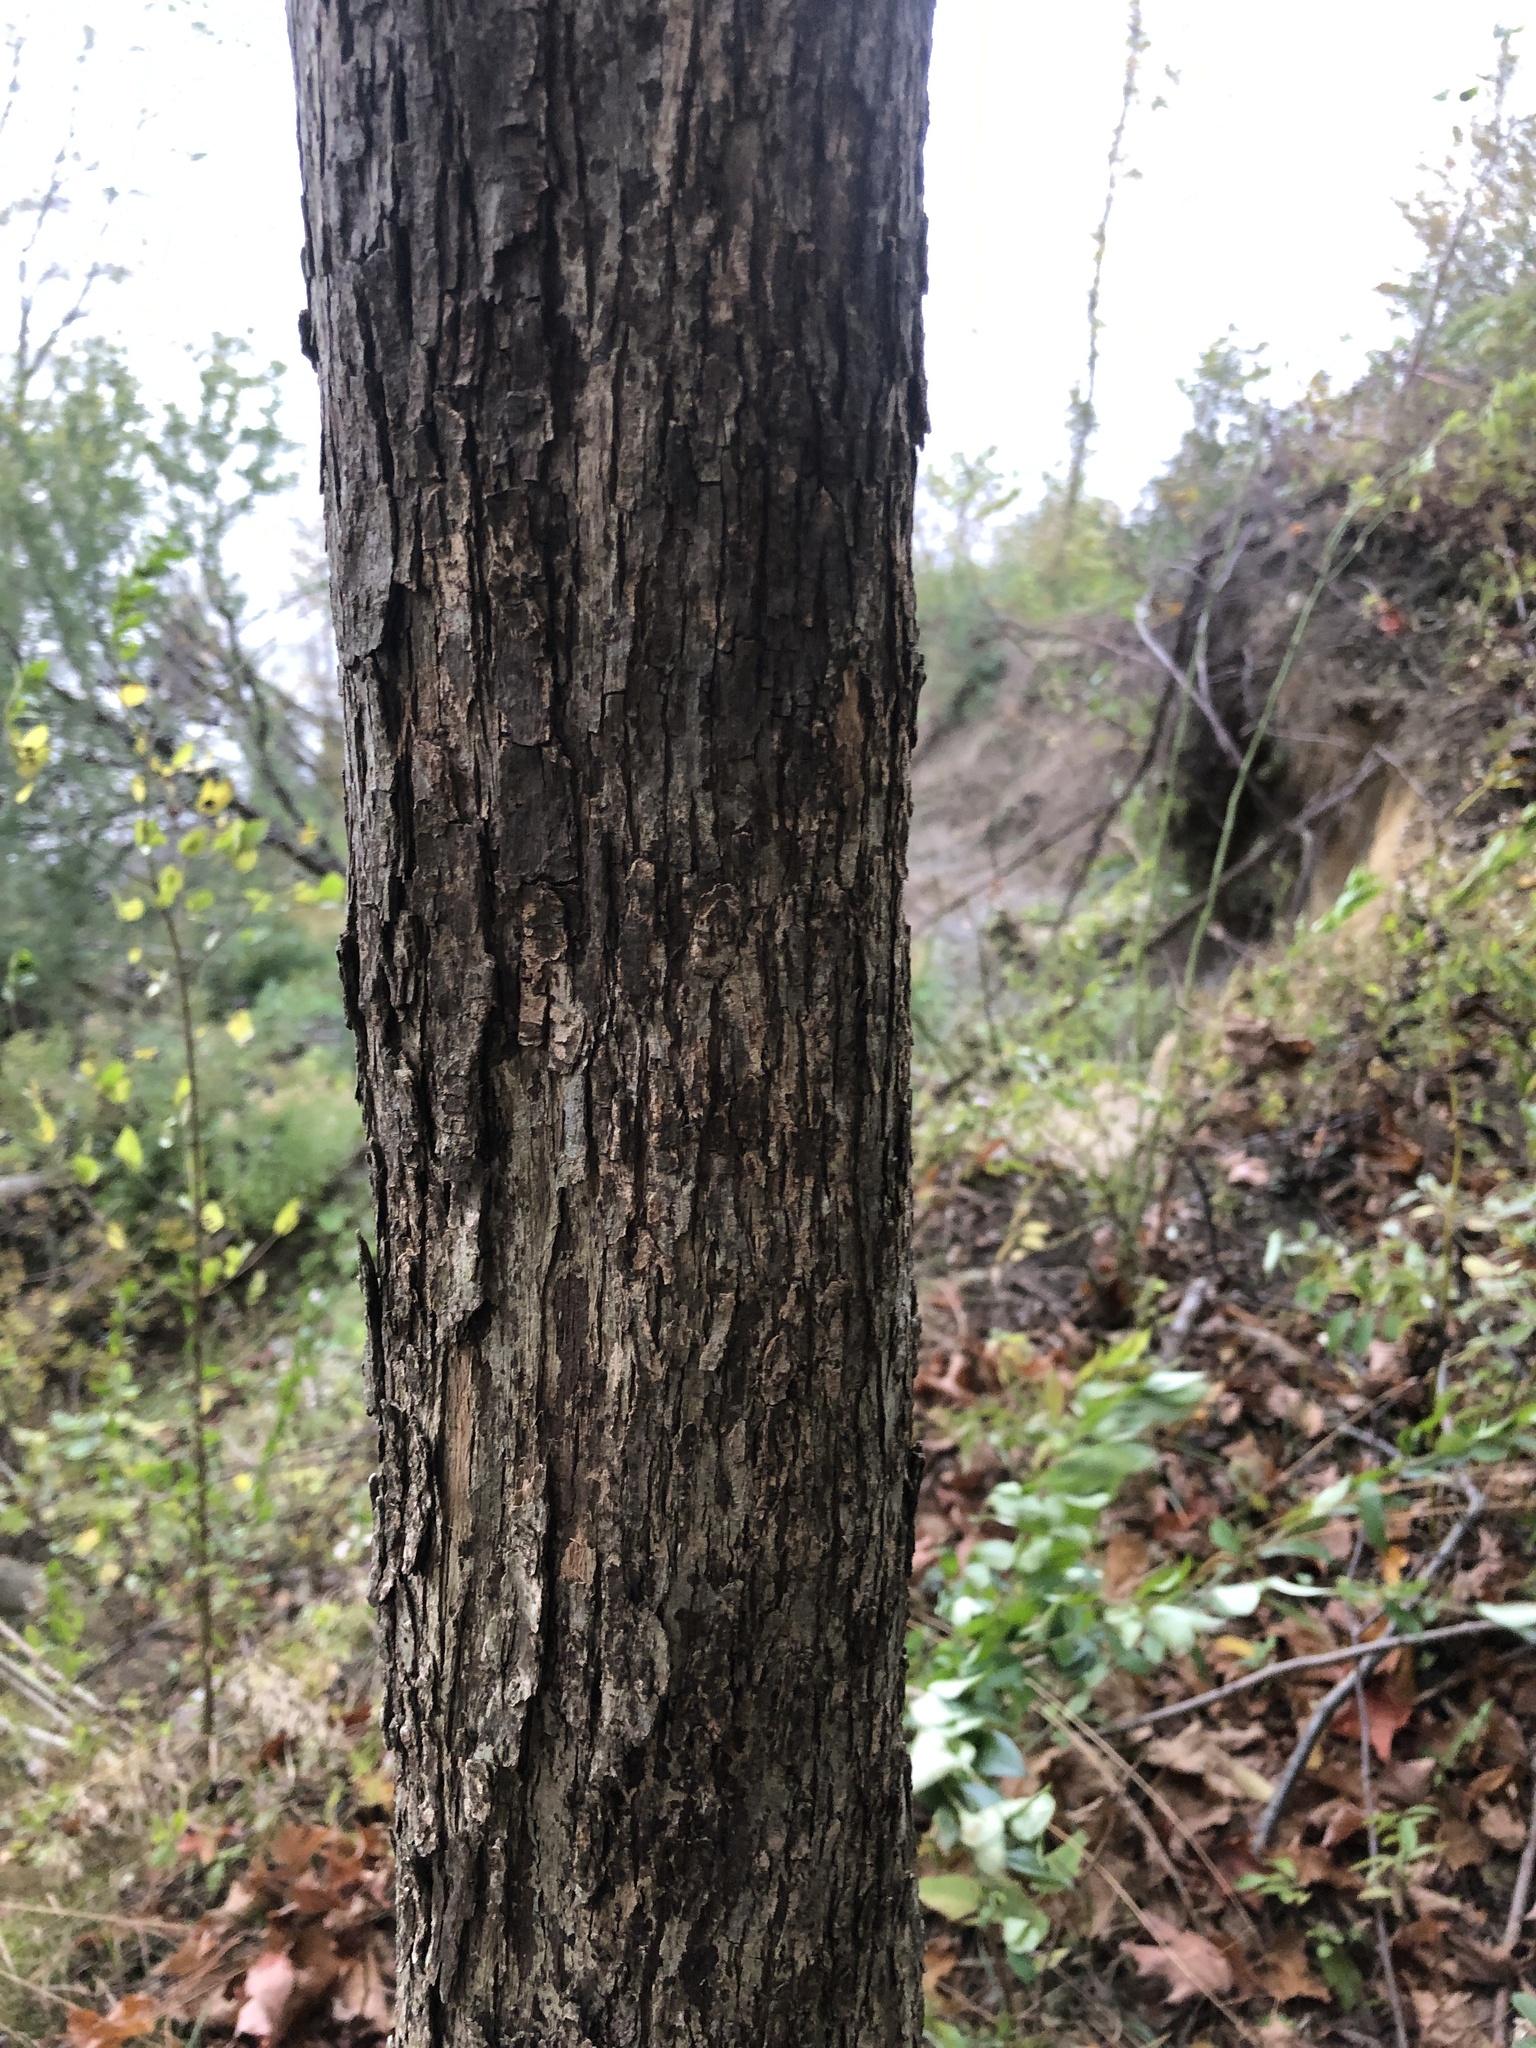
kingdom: Plantae
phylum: Tracheophyta
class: Magnoliopsida
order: Fagales
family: Betulaceae
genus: Ostrya
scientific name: Ostrya virginiana
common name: Ironwood
